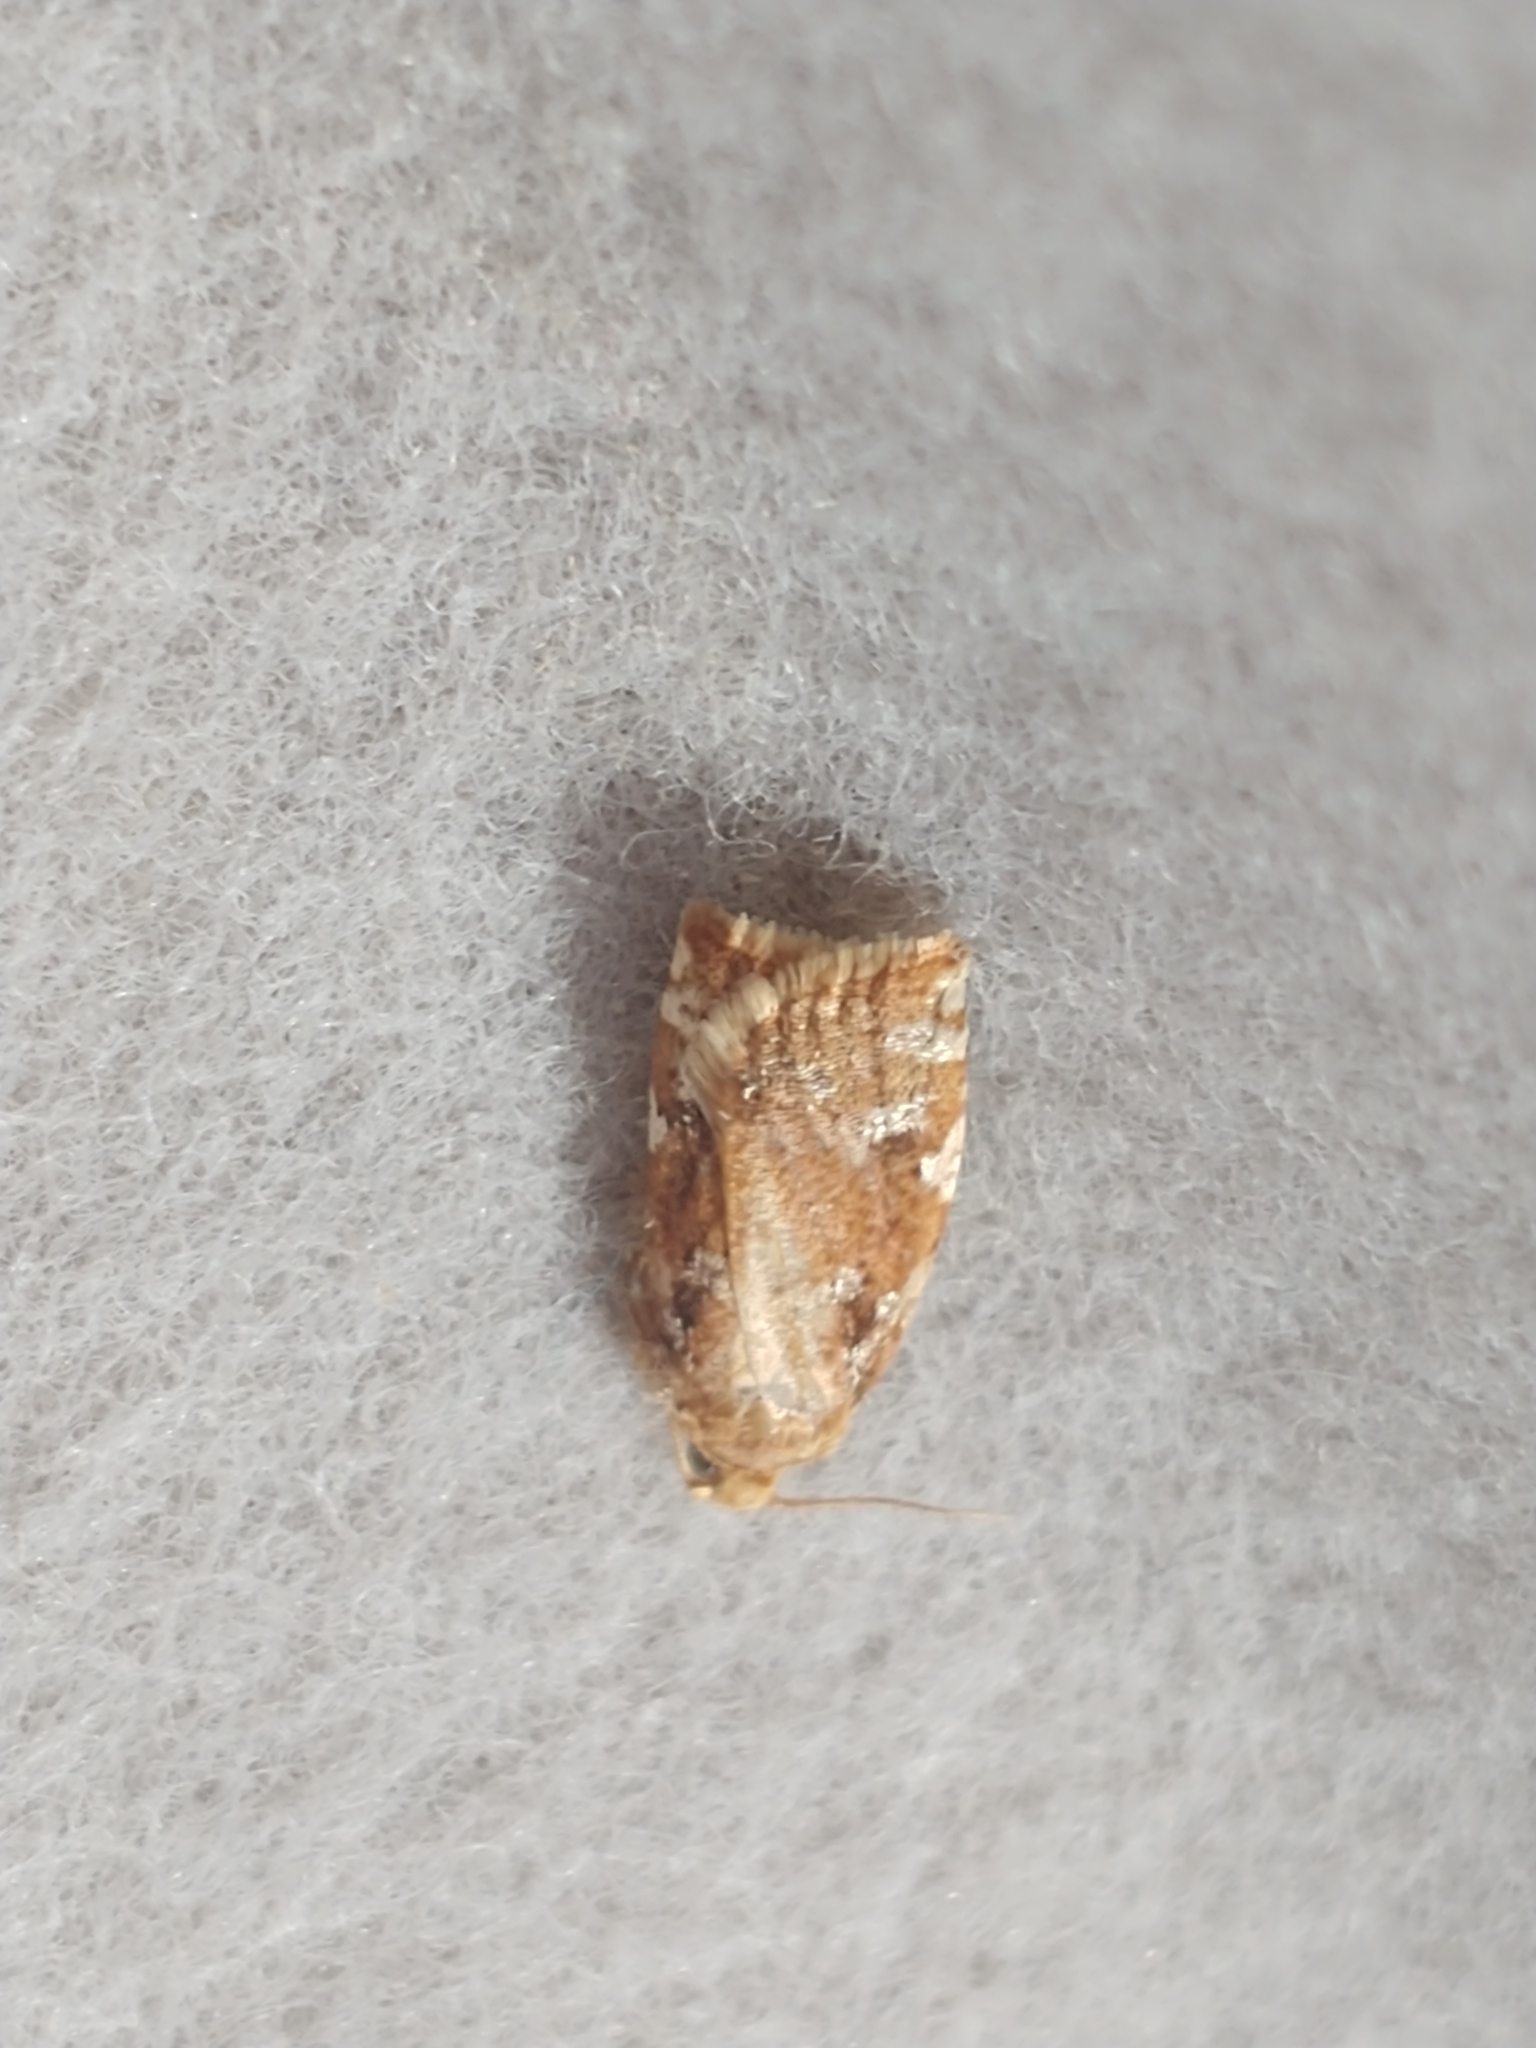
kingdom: Animalia
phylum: Arthropoda
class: Insecta
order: Lepidoptera
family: Tortricidae
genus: Archips
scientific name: Archips semiferanus
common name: Oak leafroller
